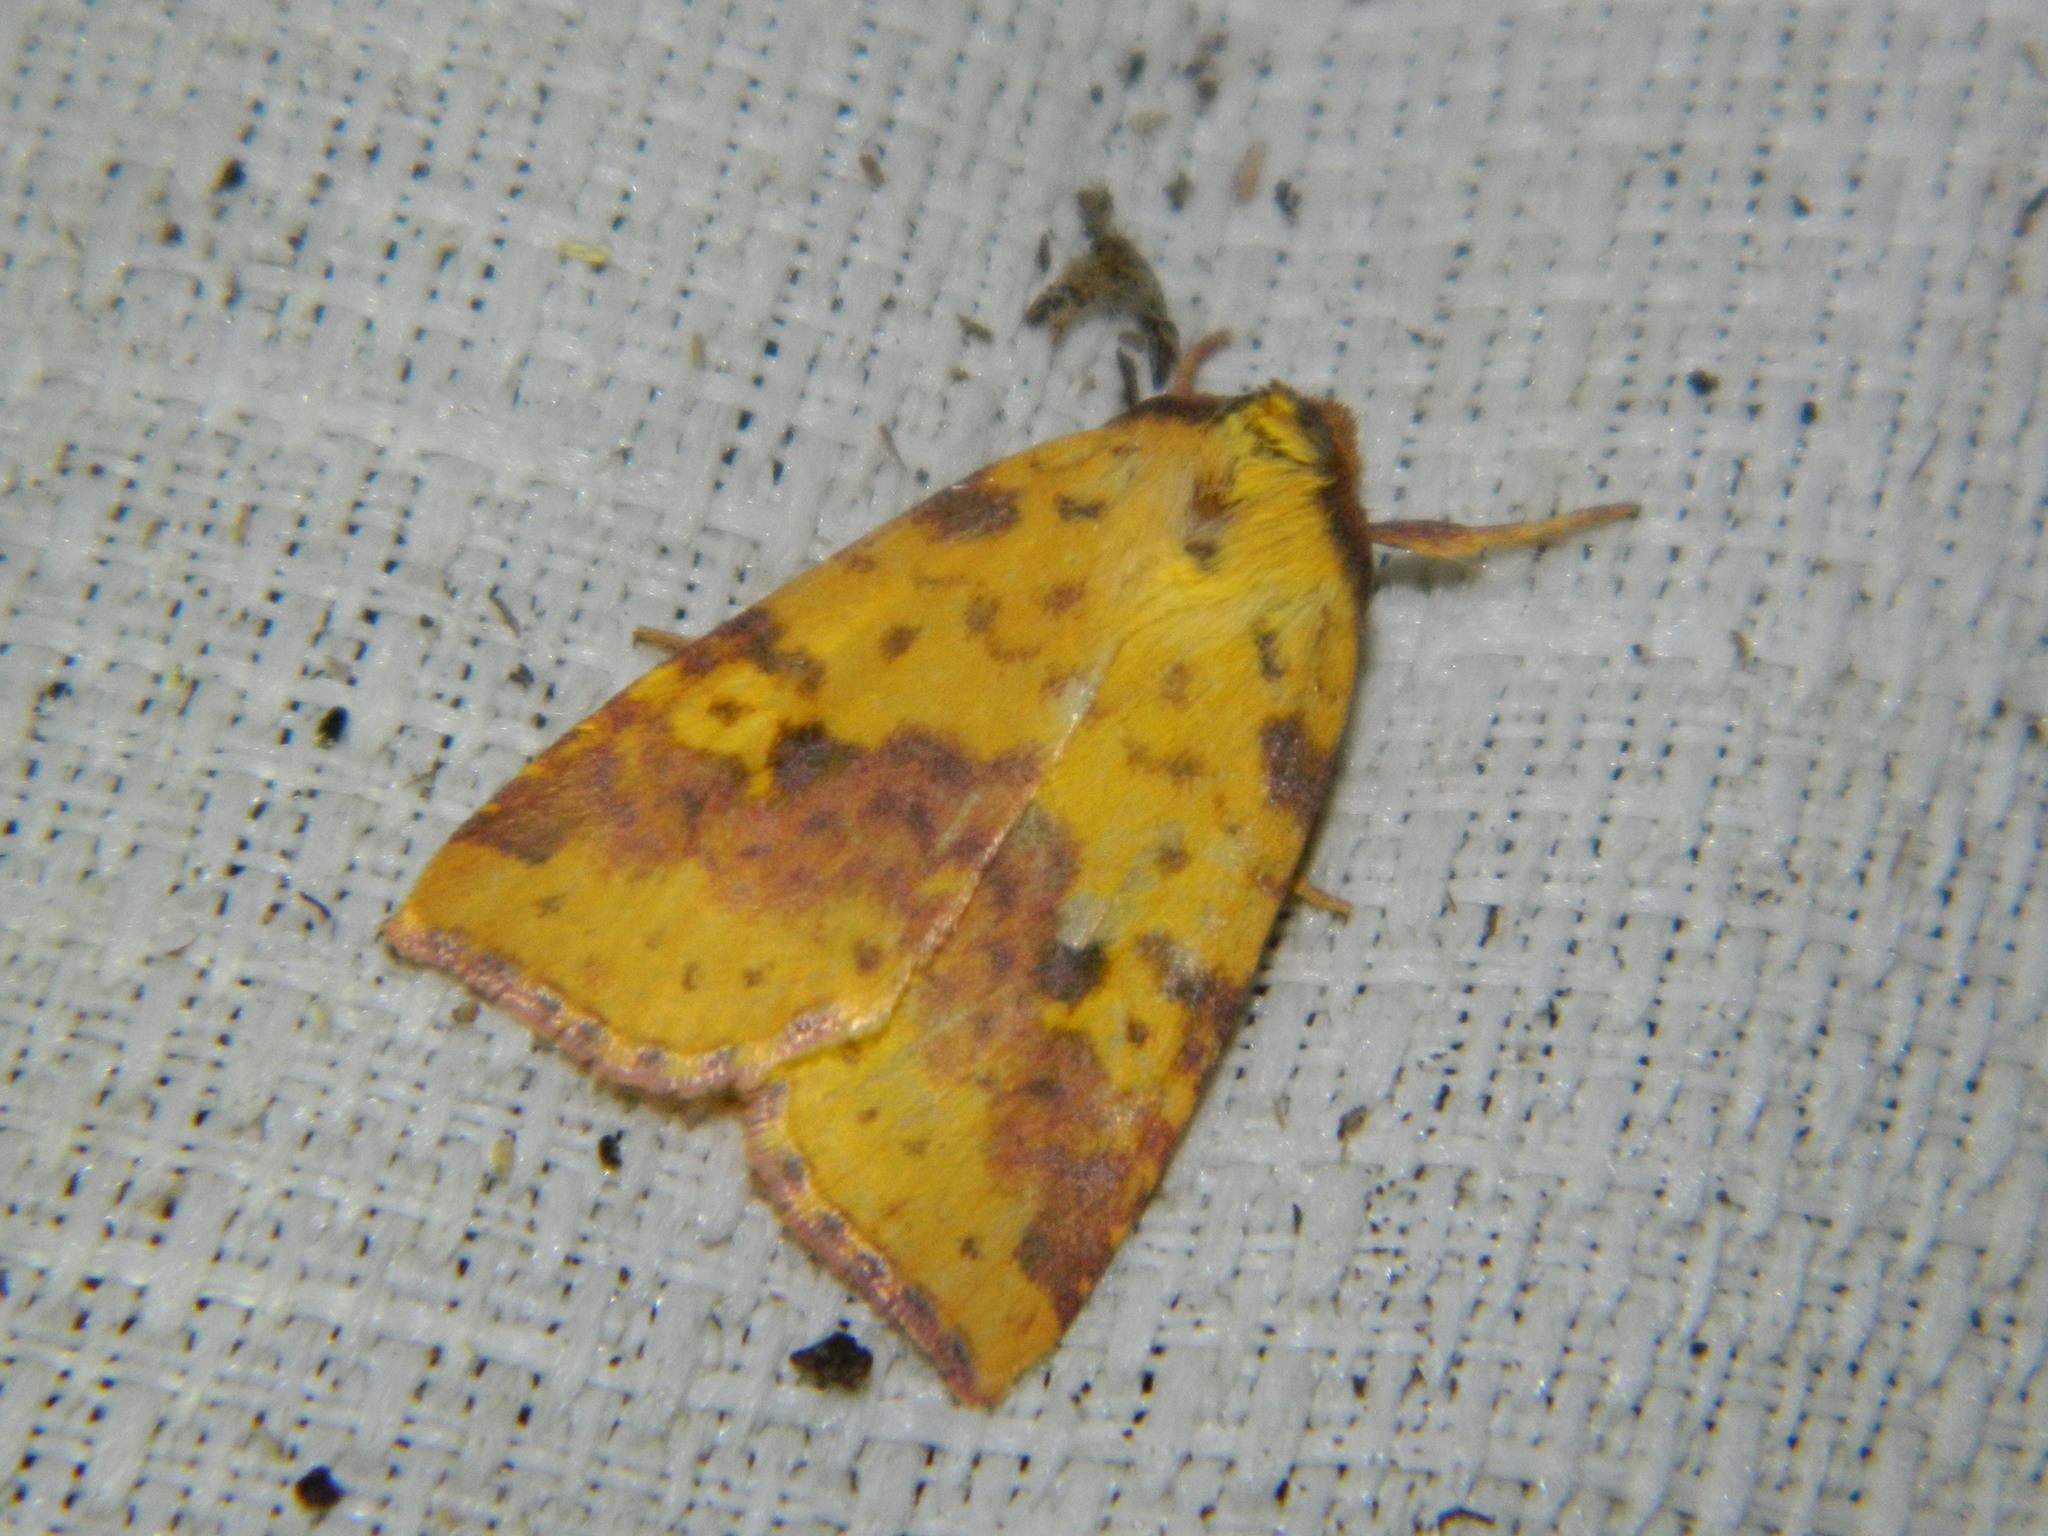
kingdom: Animalia
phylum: Arthropoda
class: Insecta
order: Lepidoptera
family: Noctuidae
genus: Xanthia
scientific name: Xanthia tatago
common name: Pink-banded sallow
